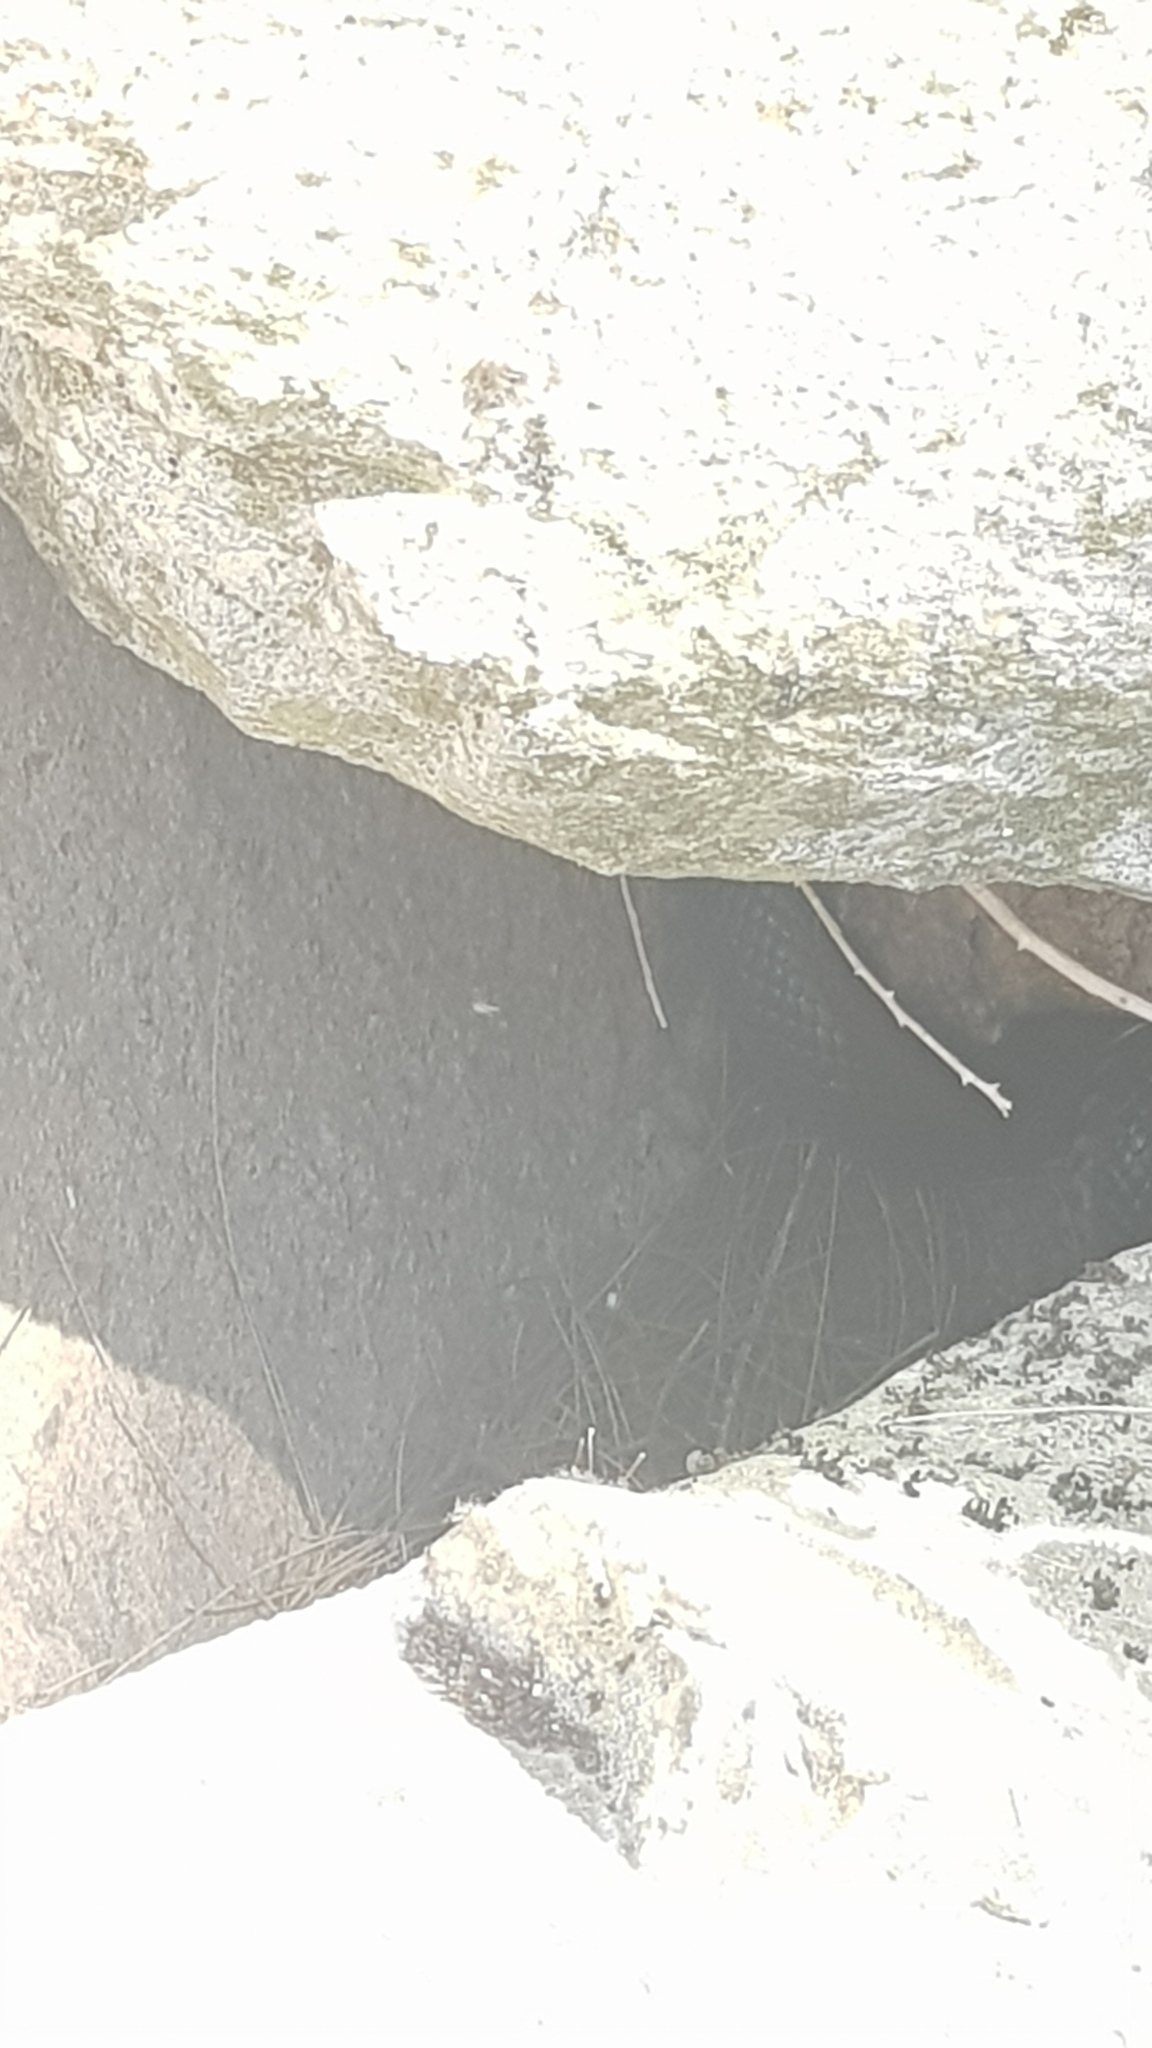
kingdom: Animalia
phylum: Chordata
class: Squamata
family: Elapidae
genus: Pseudechis
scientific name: Pseudechis porphyriacus
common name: Australian black snake
